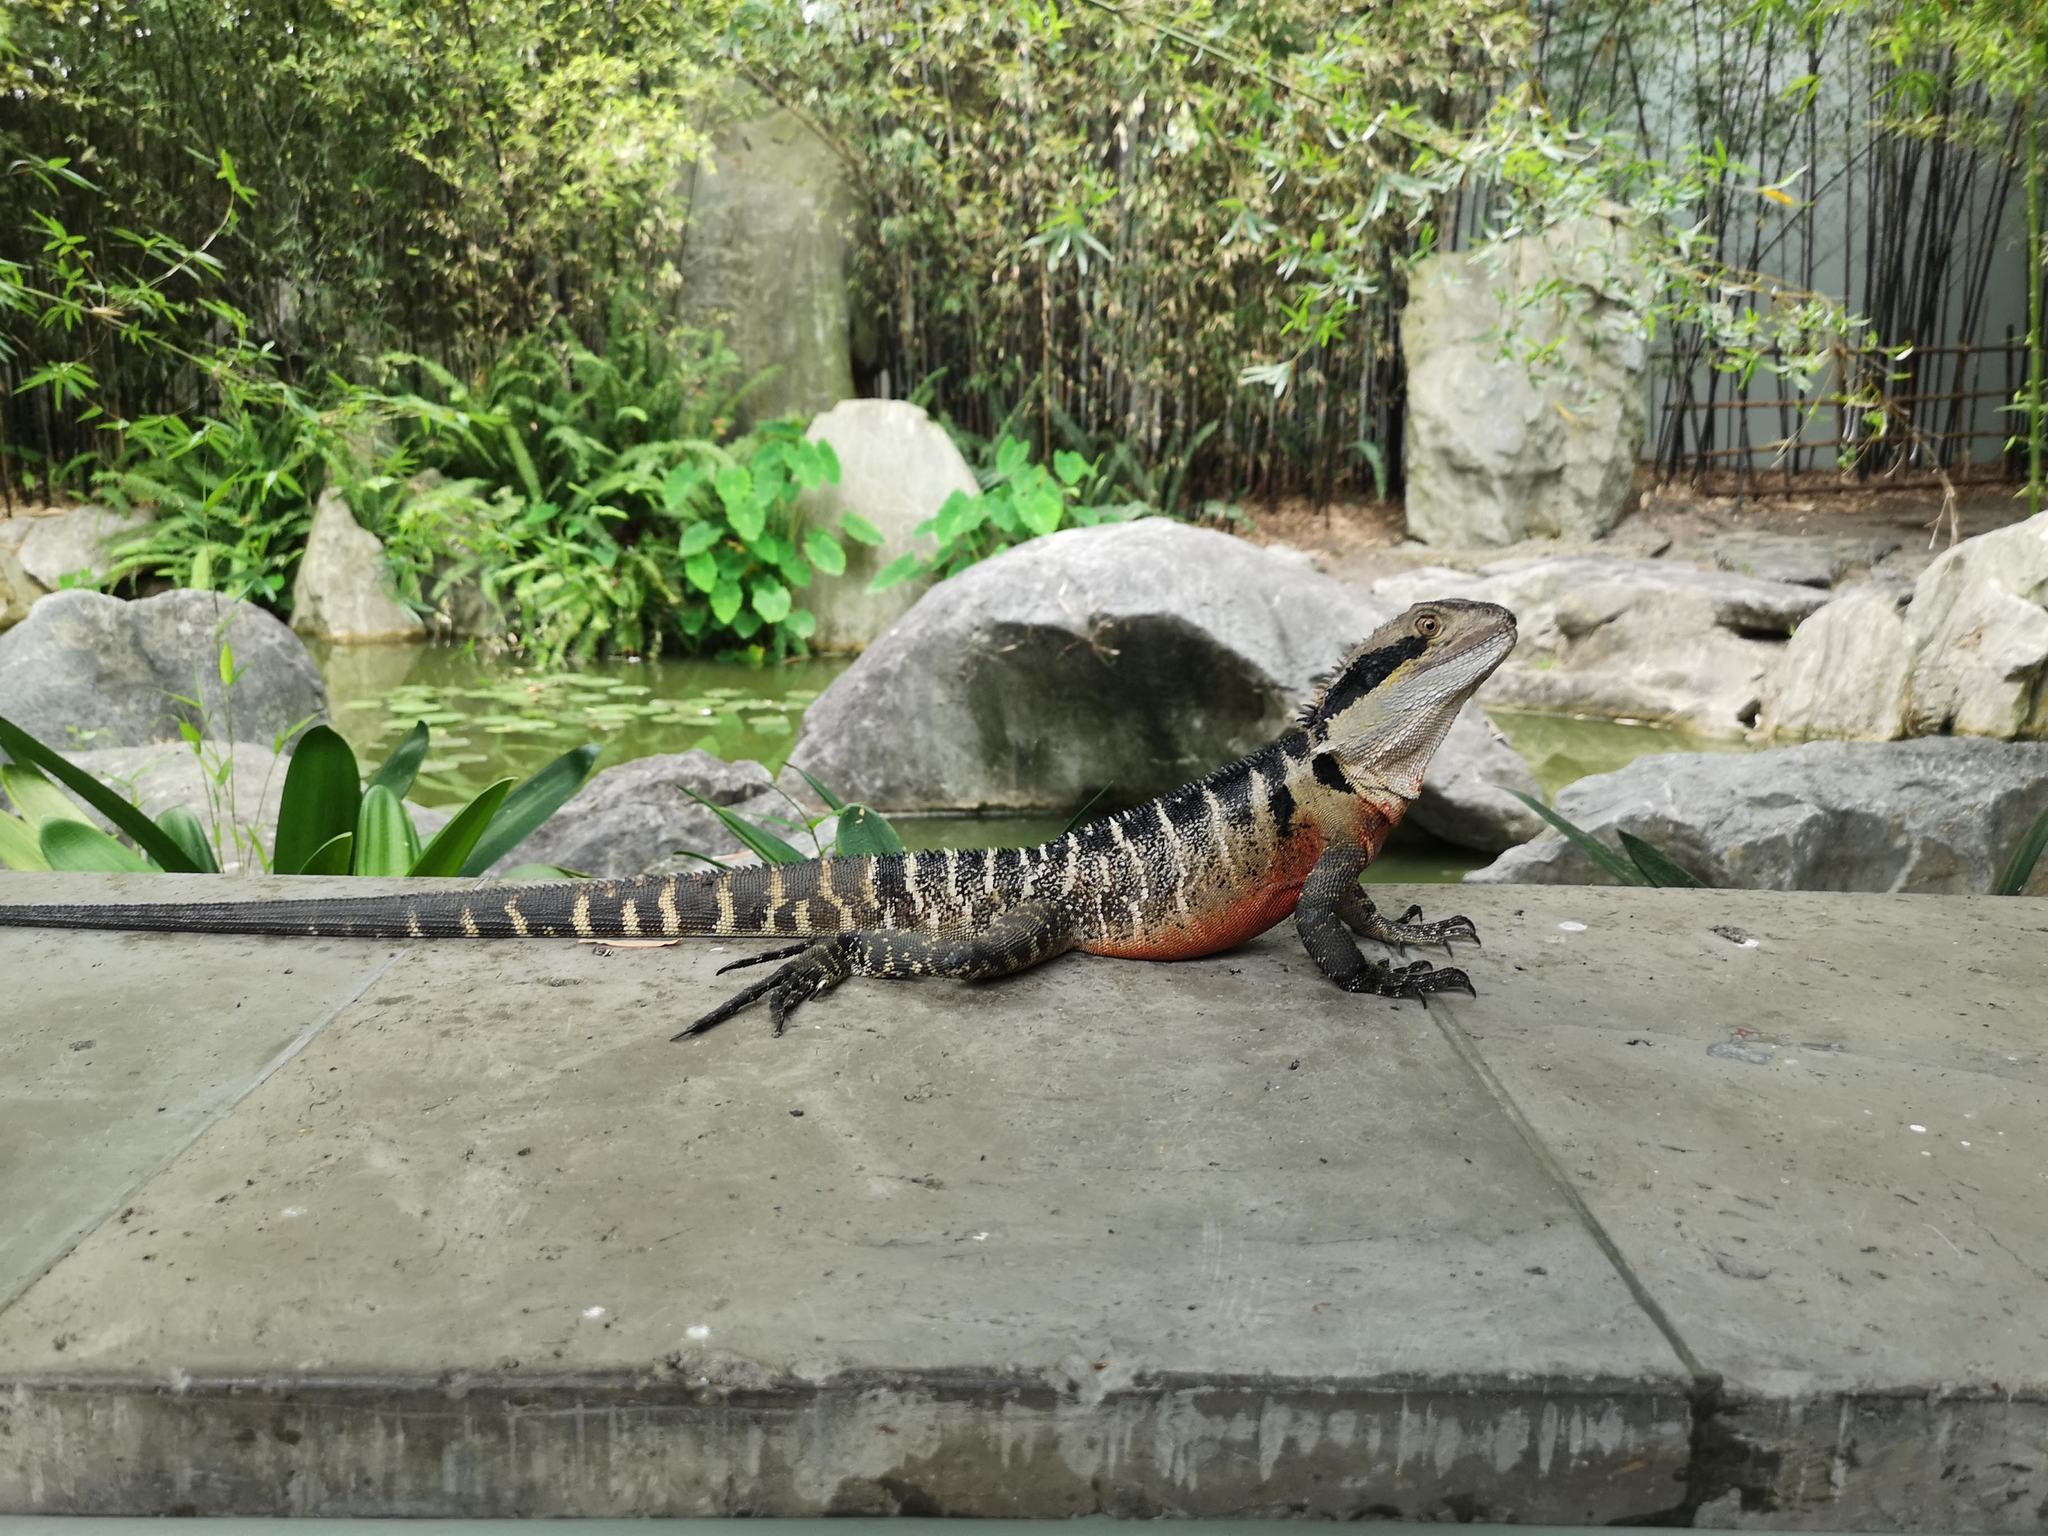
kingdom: Animalia
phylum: Chordata
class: Squamata
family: Agamidae
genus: Intellagama
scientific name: Intellagama lesueurii
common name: Eastern water dragon
